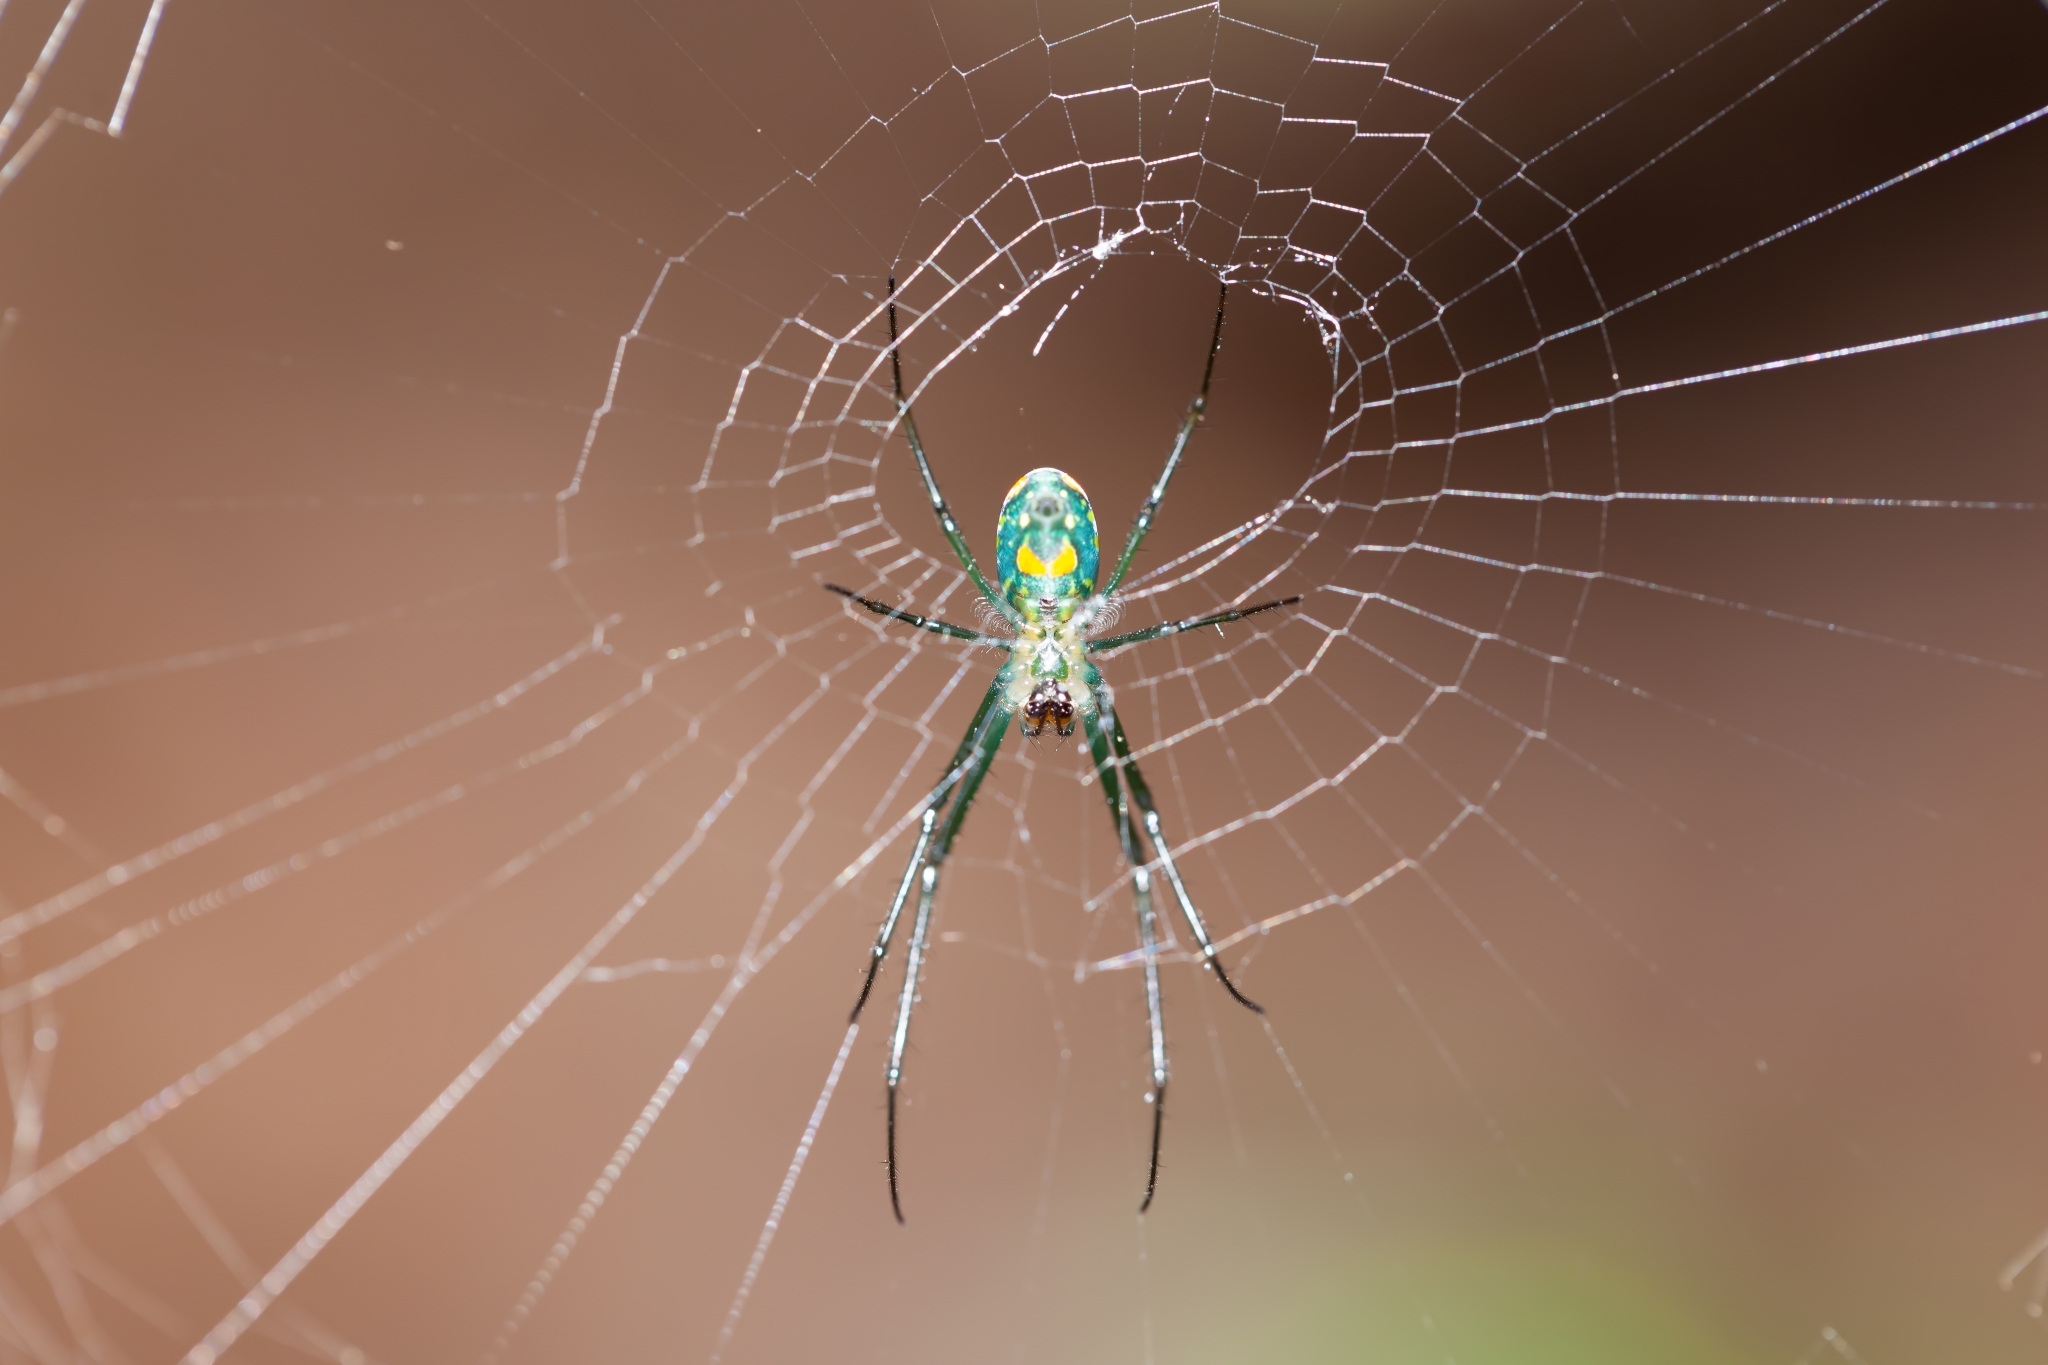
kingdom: Animalia
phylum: Arthropoda
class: Arachnida
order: Araneae
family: Tetragnathidae
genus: Leucauge
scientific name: Leucauge argyrobapta
